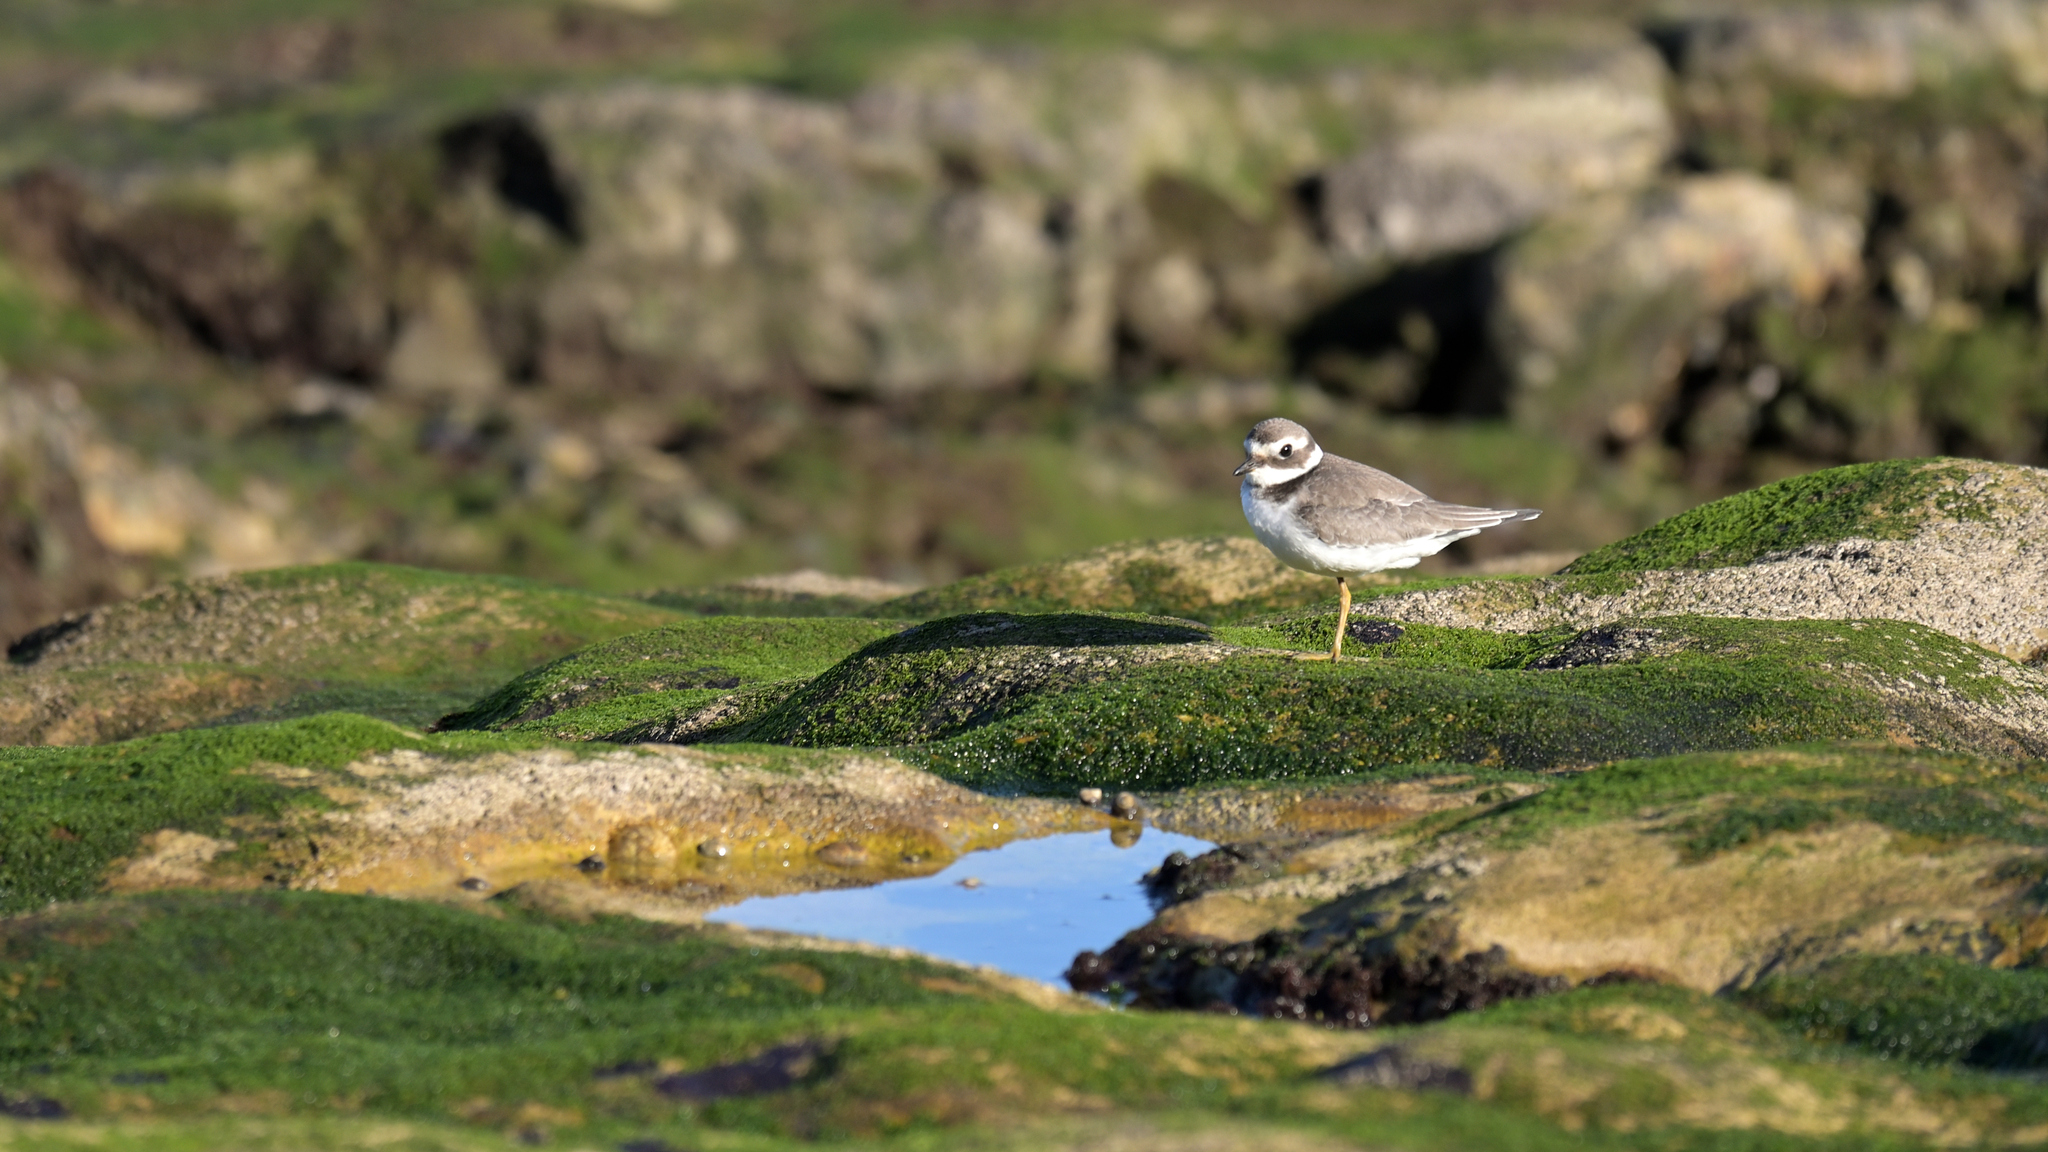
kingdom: Animalia
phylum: Chordata
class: Aves
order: Charadriiformes
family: Charadriidae
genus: Charadrius
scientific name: Charadrius hiaticula
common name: Common ringed plover
